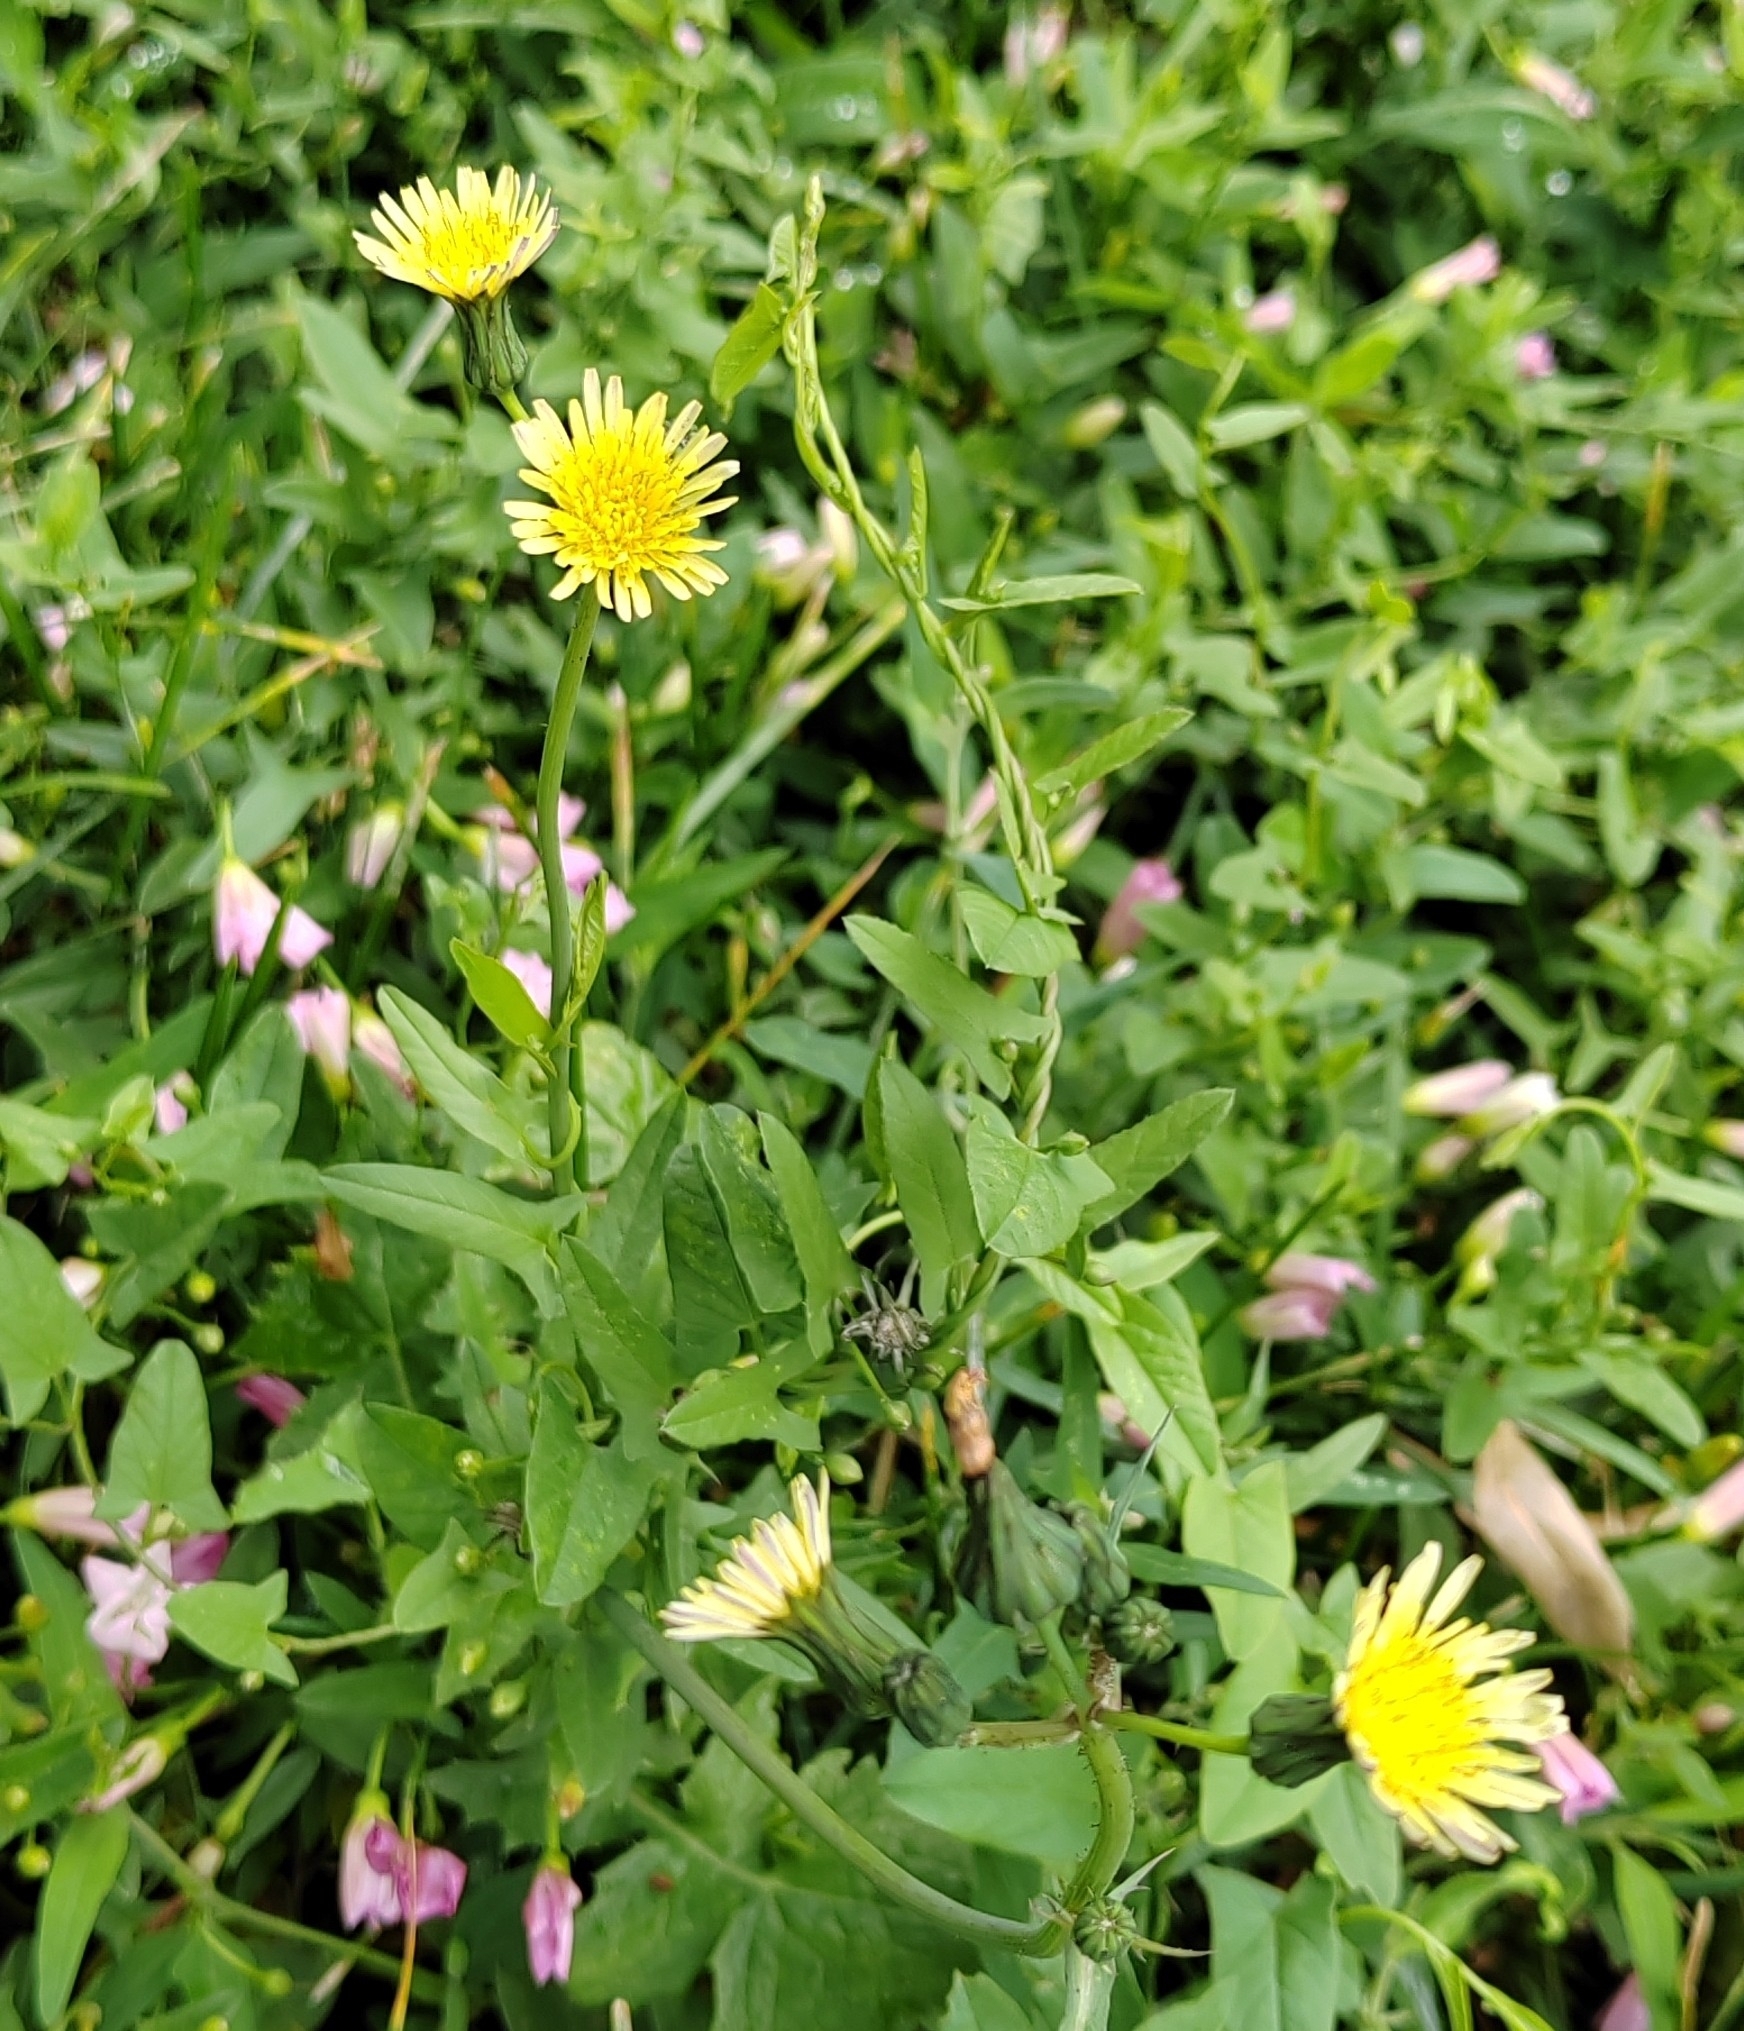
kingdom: Plantae
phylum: Tracheophyta
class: Magnoliopsida
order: Asterales
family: Asteraceae
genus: Sonchus
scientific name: Sonchus oleraceus
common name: Common sowthistle
